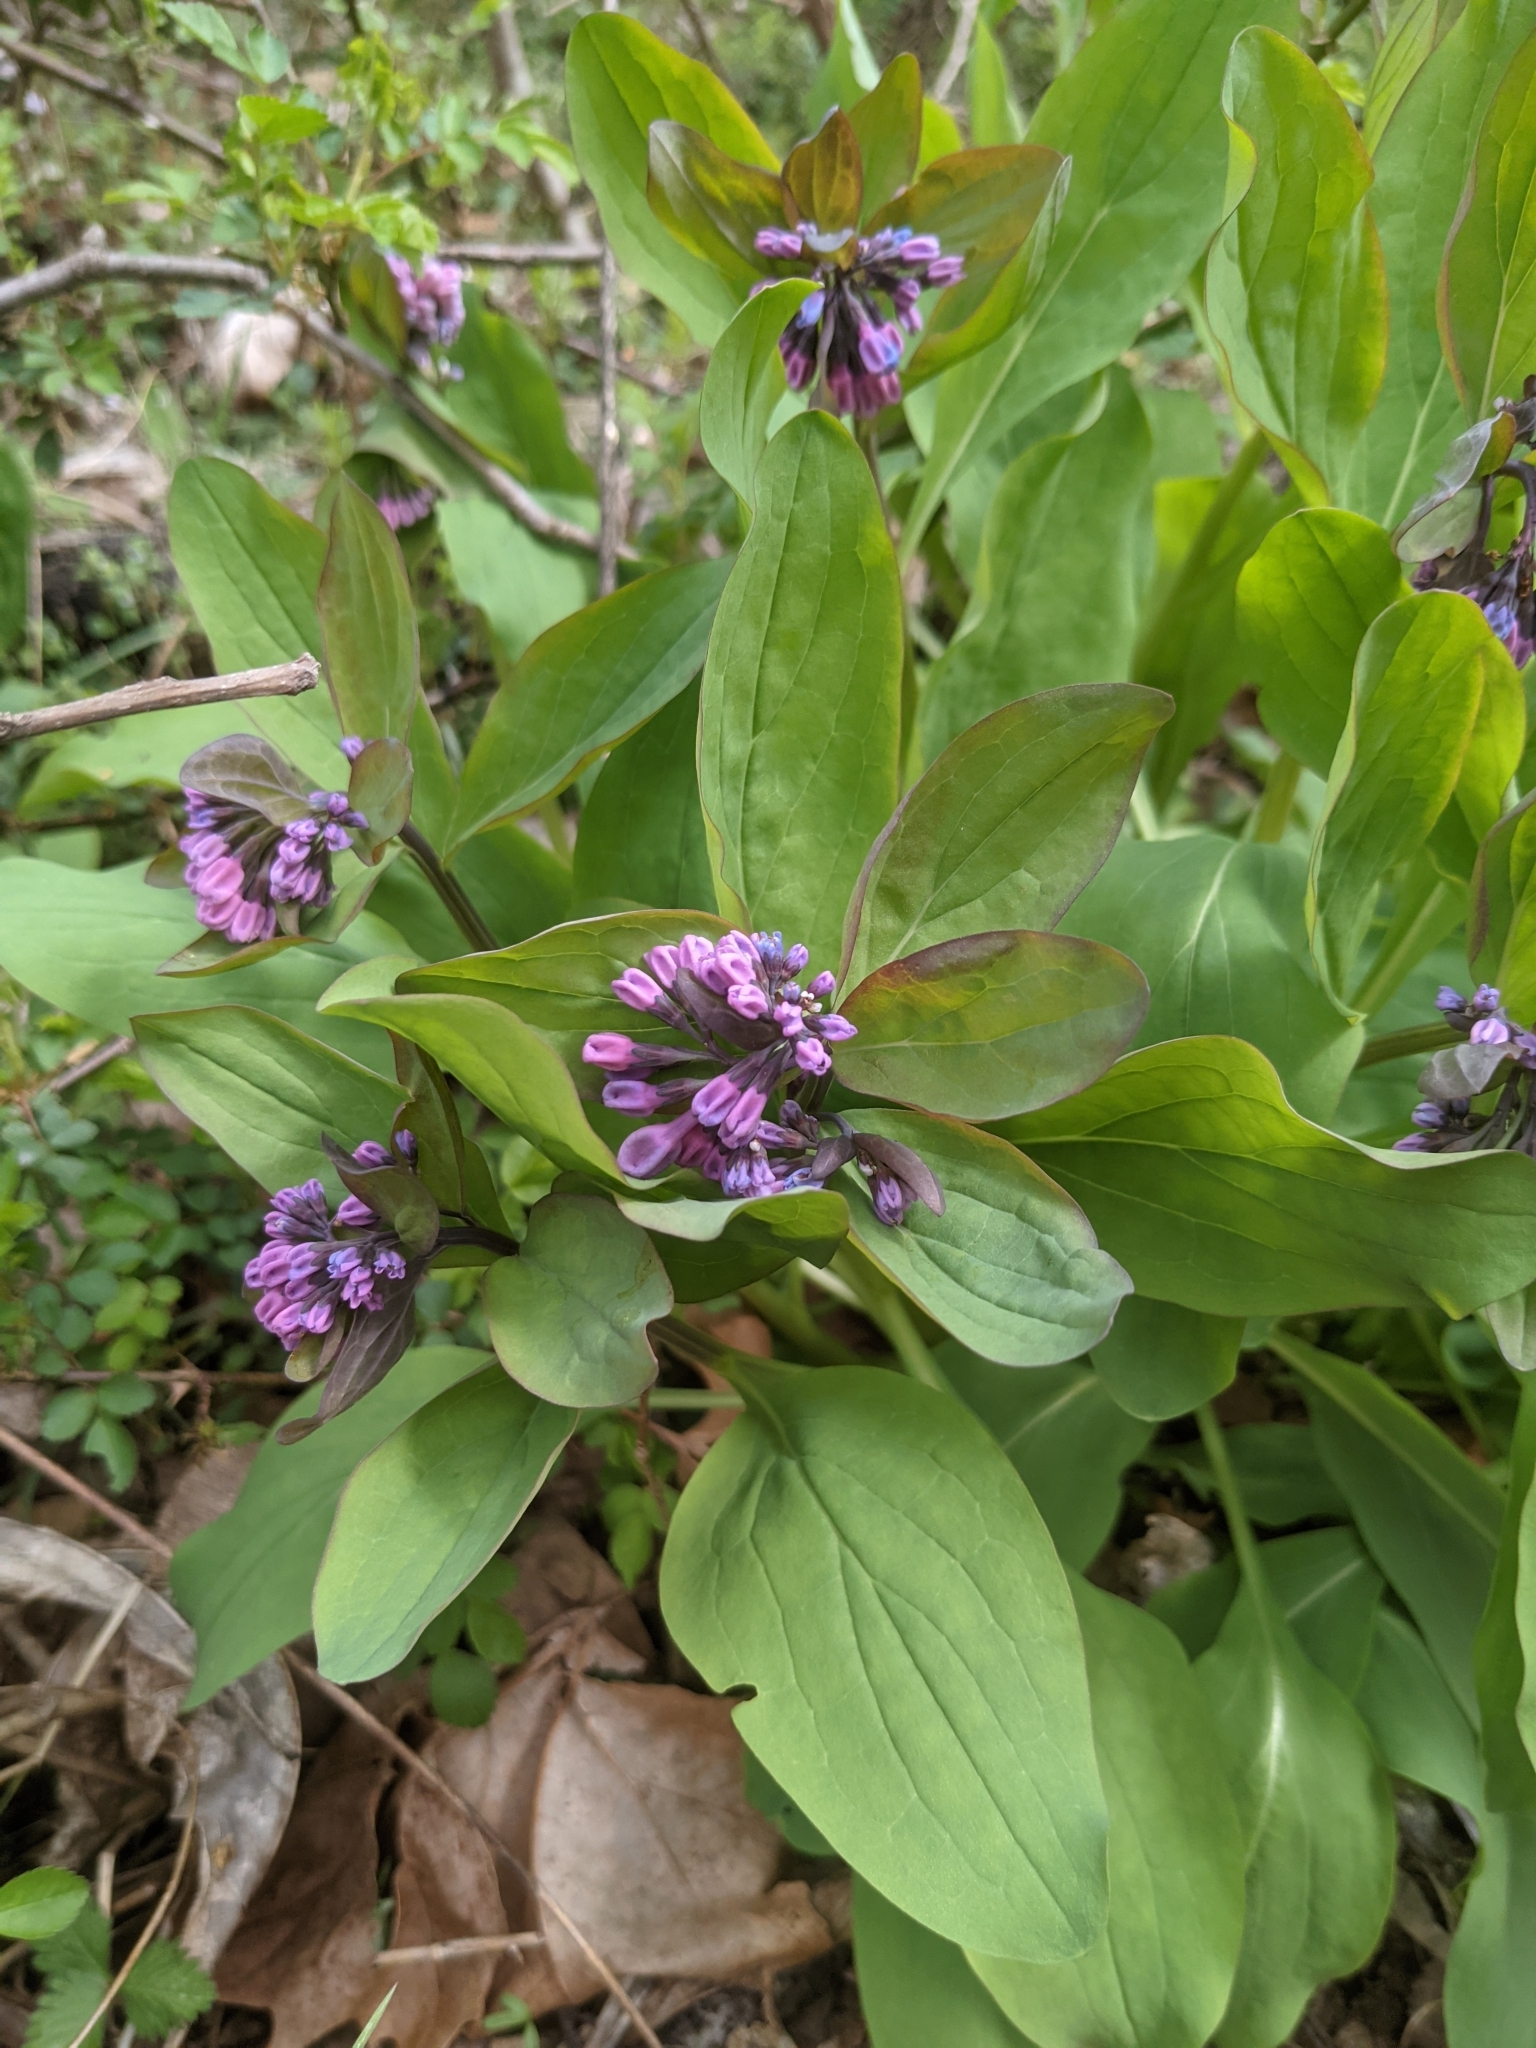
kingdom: Plantae
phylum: Tracheophyta
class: Magnoliopsida
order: Boraginales
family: Boraginaceae
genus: Mertensia
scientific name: Mertensia virginica
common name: Virginia bluebells
